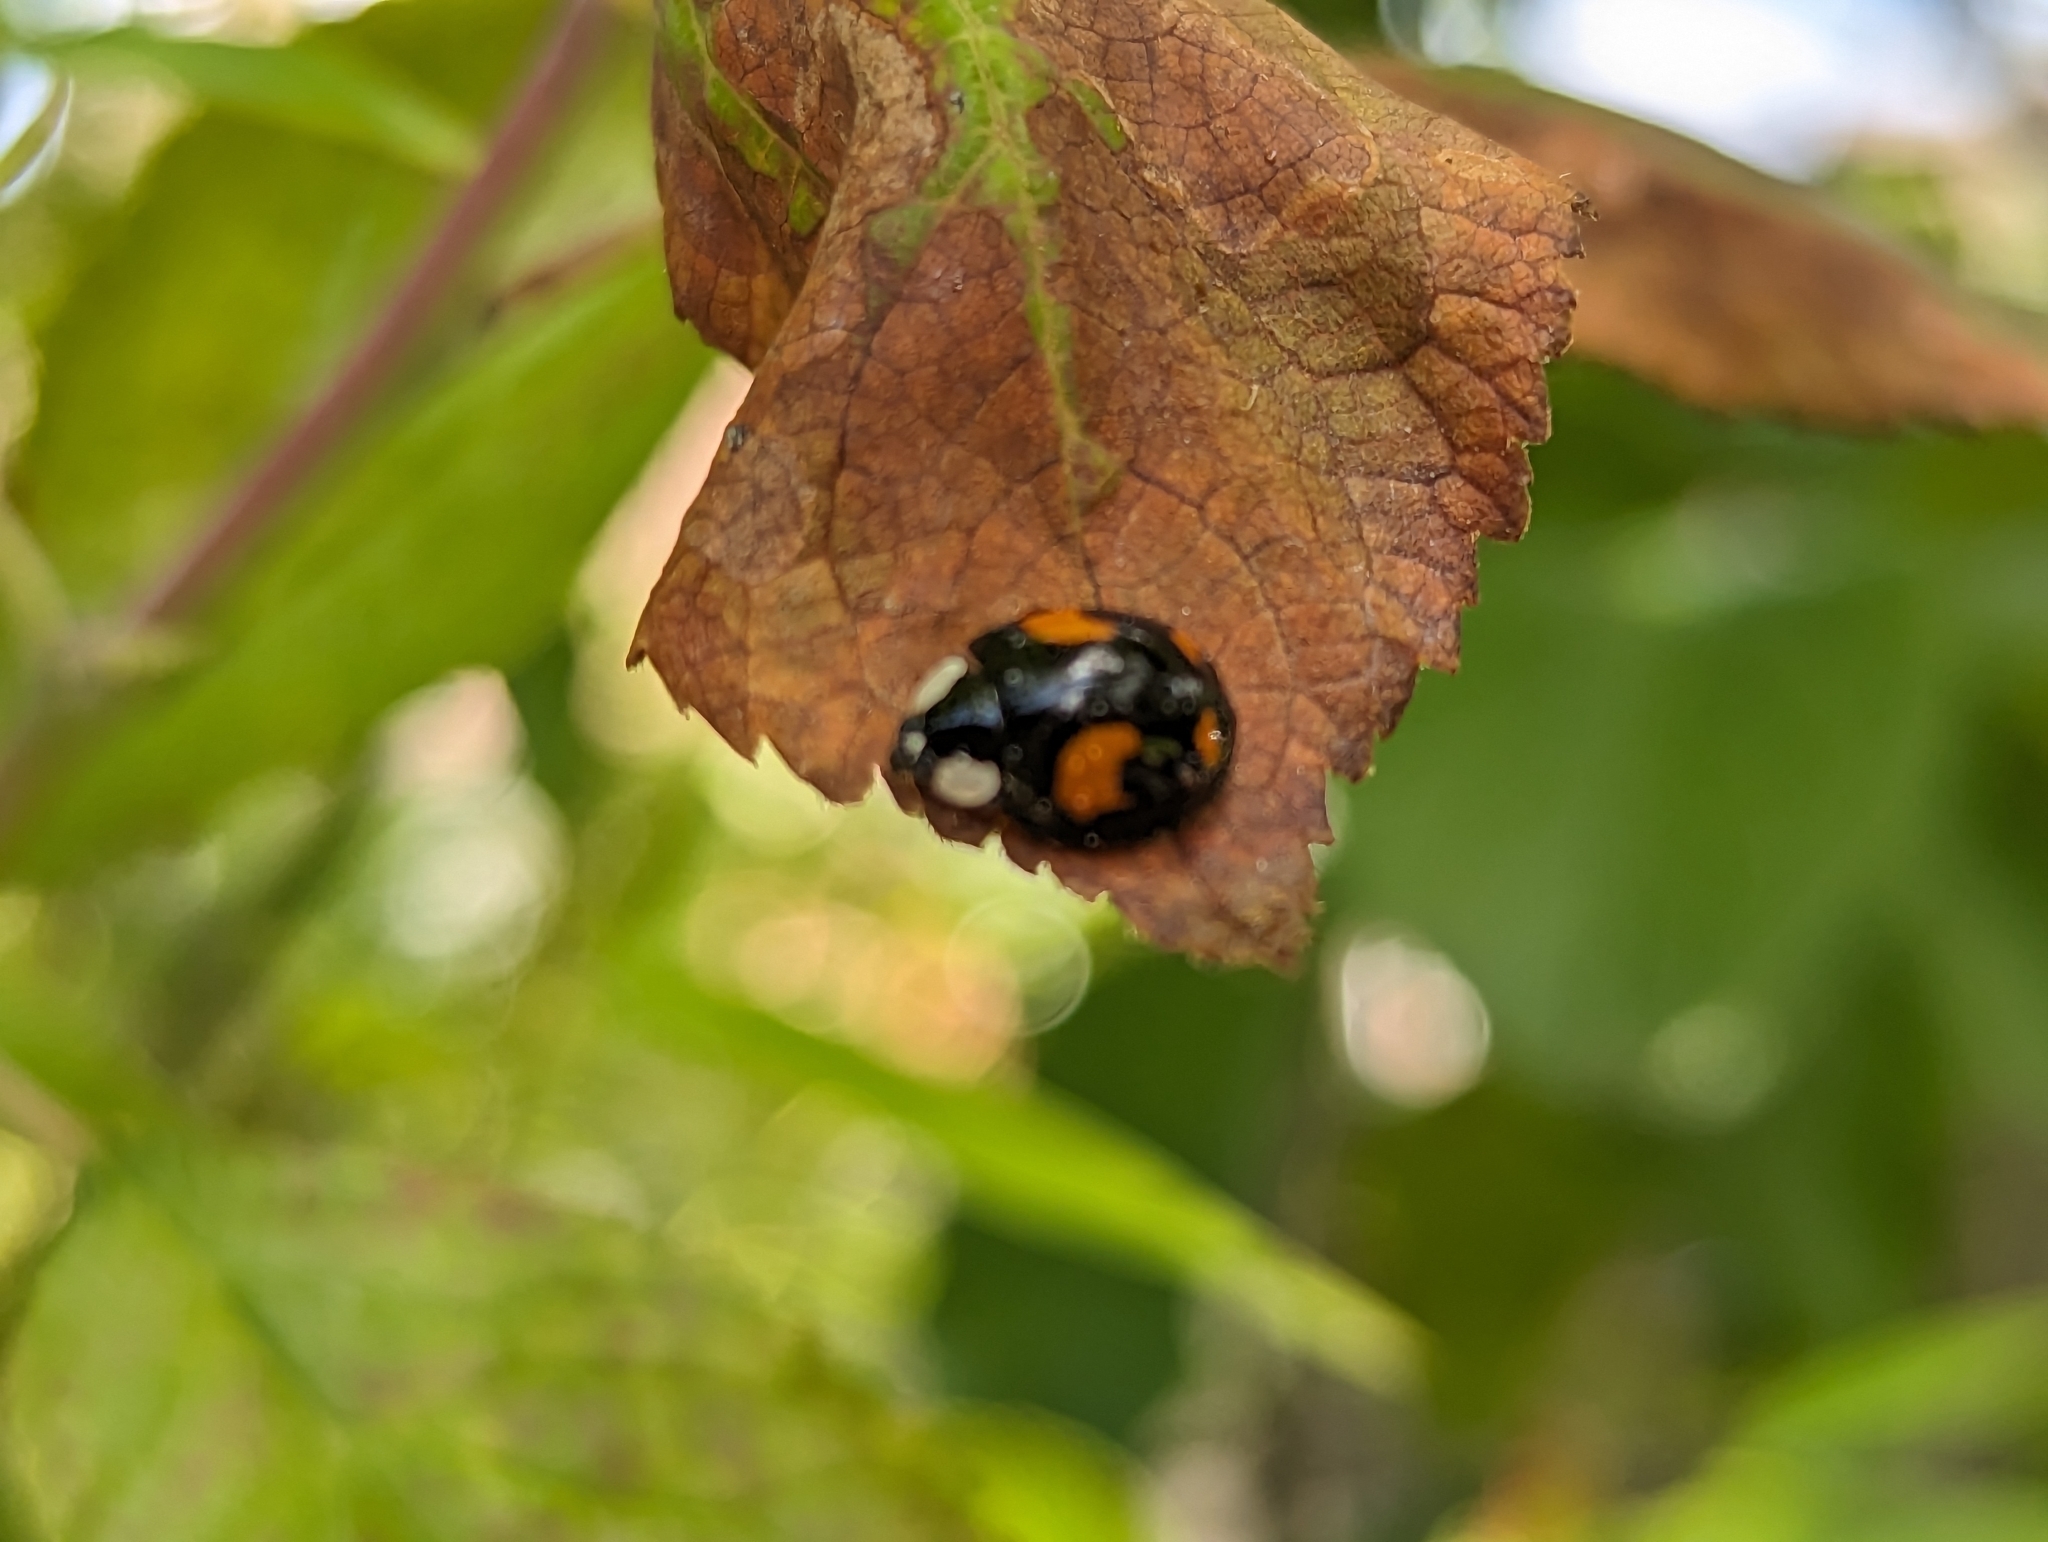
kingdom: Animalia
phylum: Arthropoda
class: Insecta
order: Coleoptera
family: Coccinellidae
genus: Harmonia
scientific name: Harmonia axyridis
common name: Harlequin ladybird
